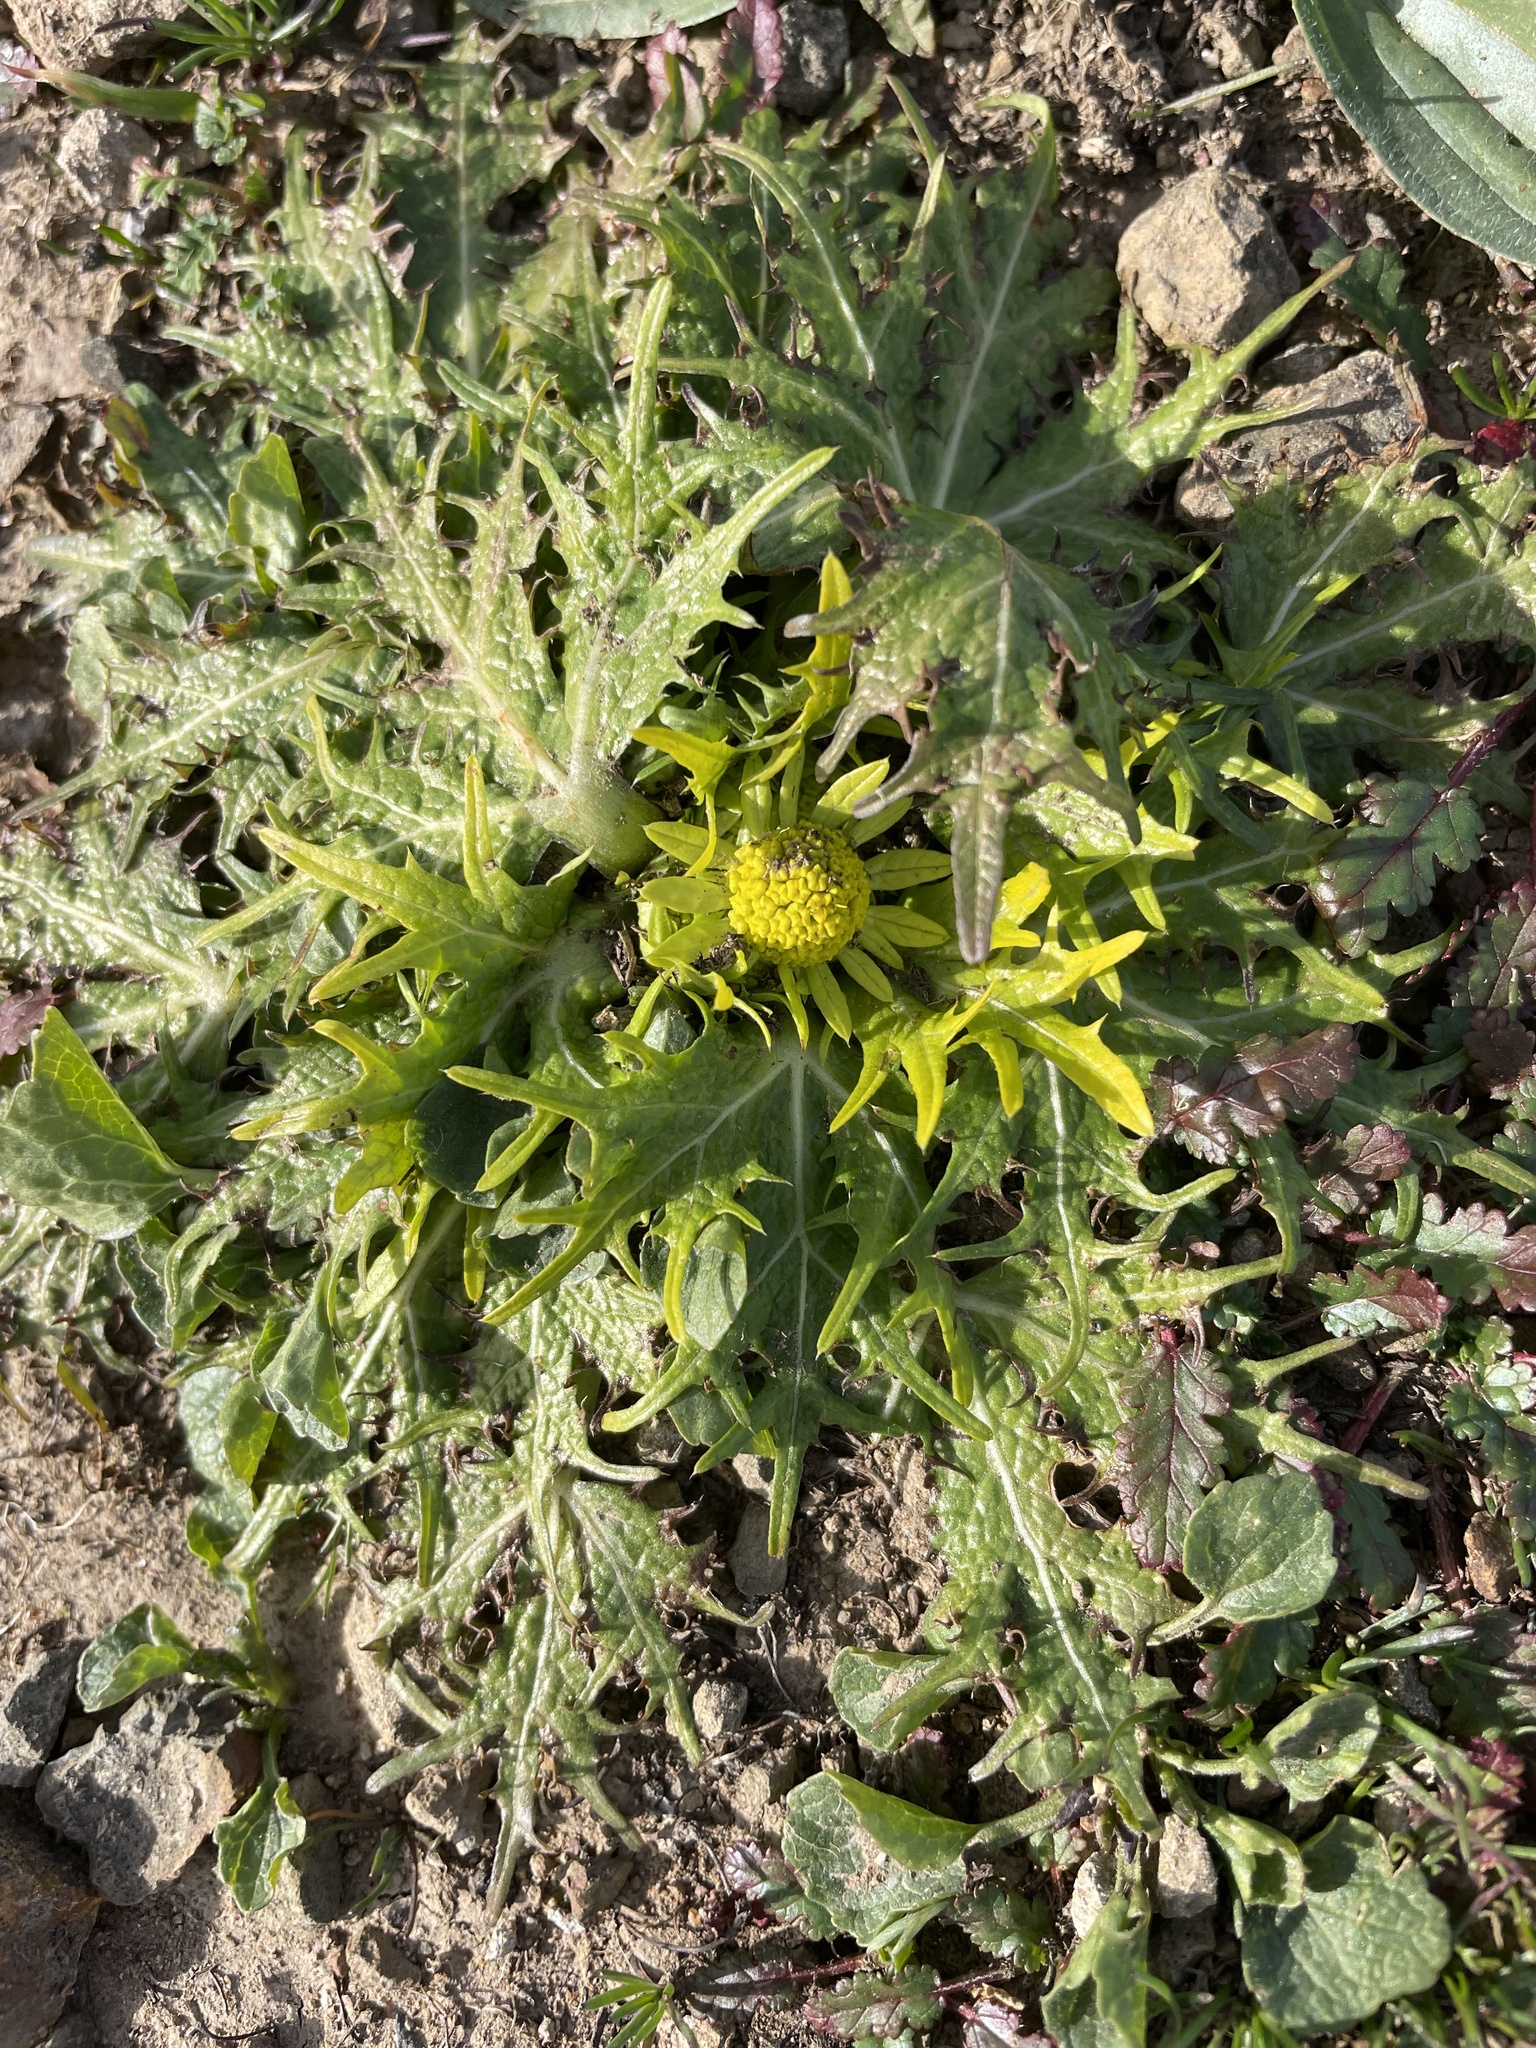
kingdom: Plantae
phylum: Tracheophyta
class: Magnoliopsida
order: Apiales
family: Apiaceae
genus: Sanicula
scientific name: Sanicula arctopoides
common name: Footsteps-of-spring
